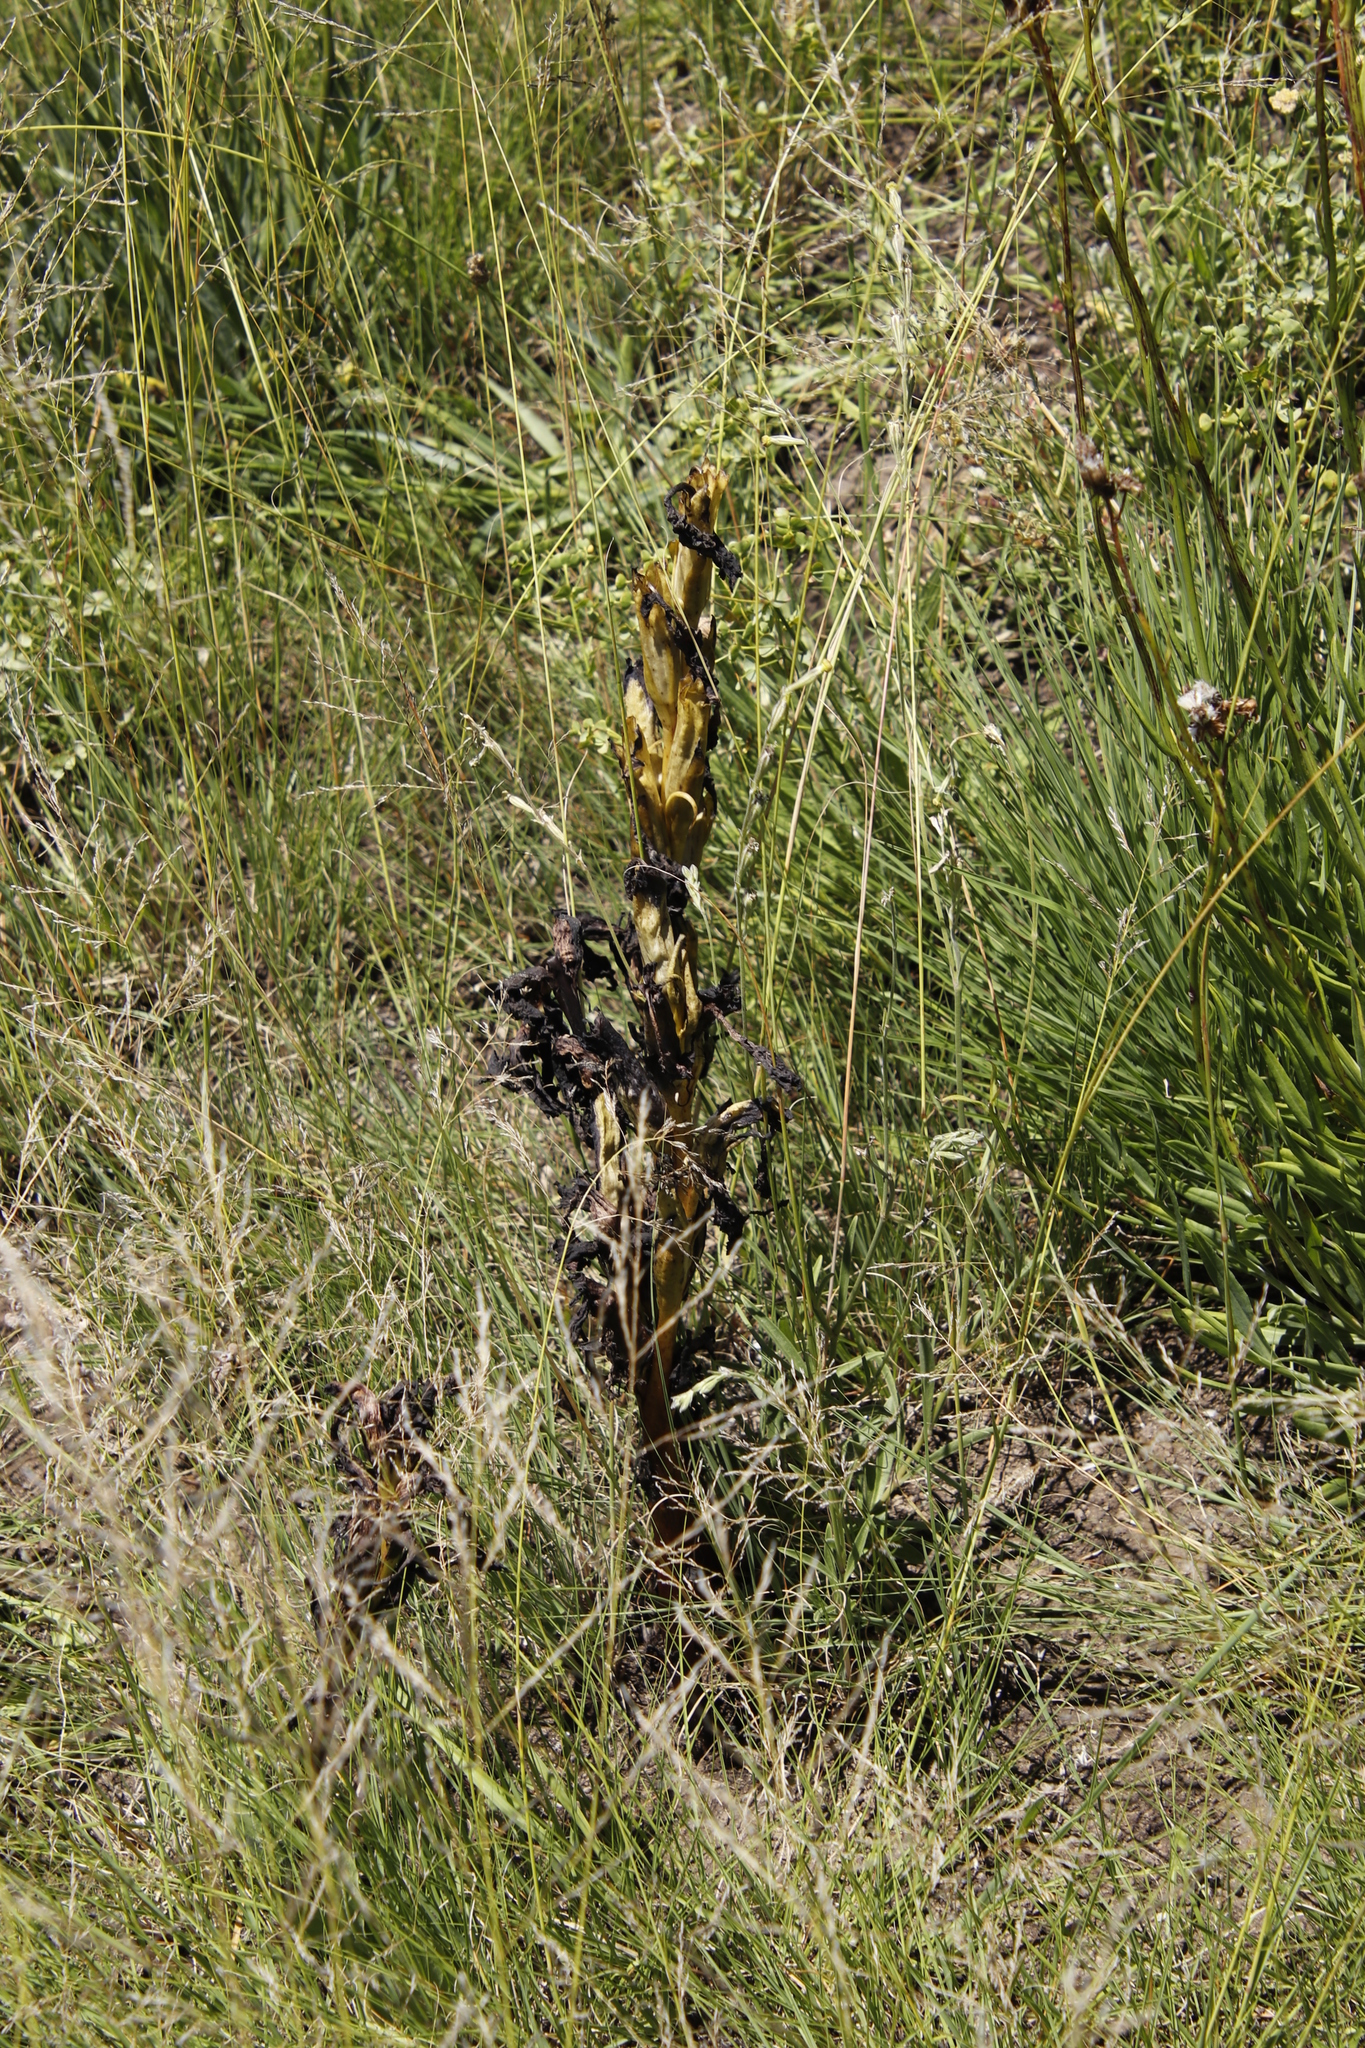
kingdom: Plantae
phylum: Tracheophyta
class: Magnoliopsida
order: Lamiales
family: Orobanchaceae
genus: Harveya
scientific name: Harveya speciosa
